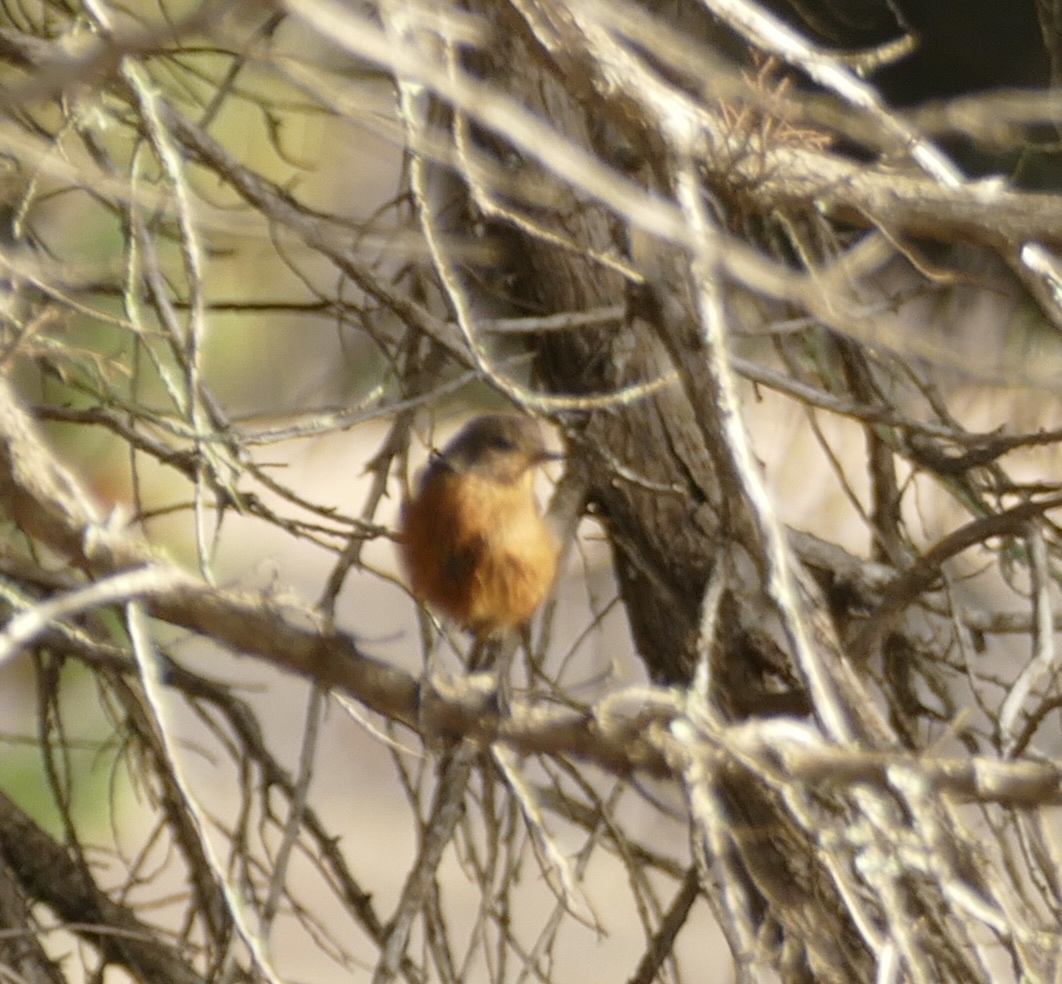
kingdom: Animalia
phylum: Chordata
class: Aves
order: Passeriformes
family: Muscicapidae
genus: Phoenicurus
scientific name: Phoenicurus moussieri
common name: Moussier's redstart
